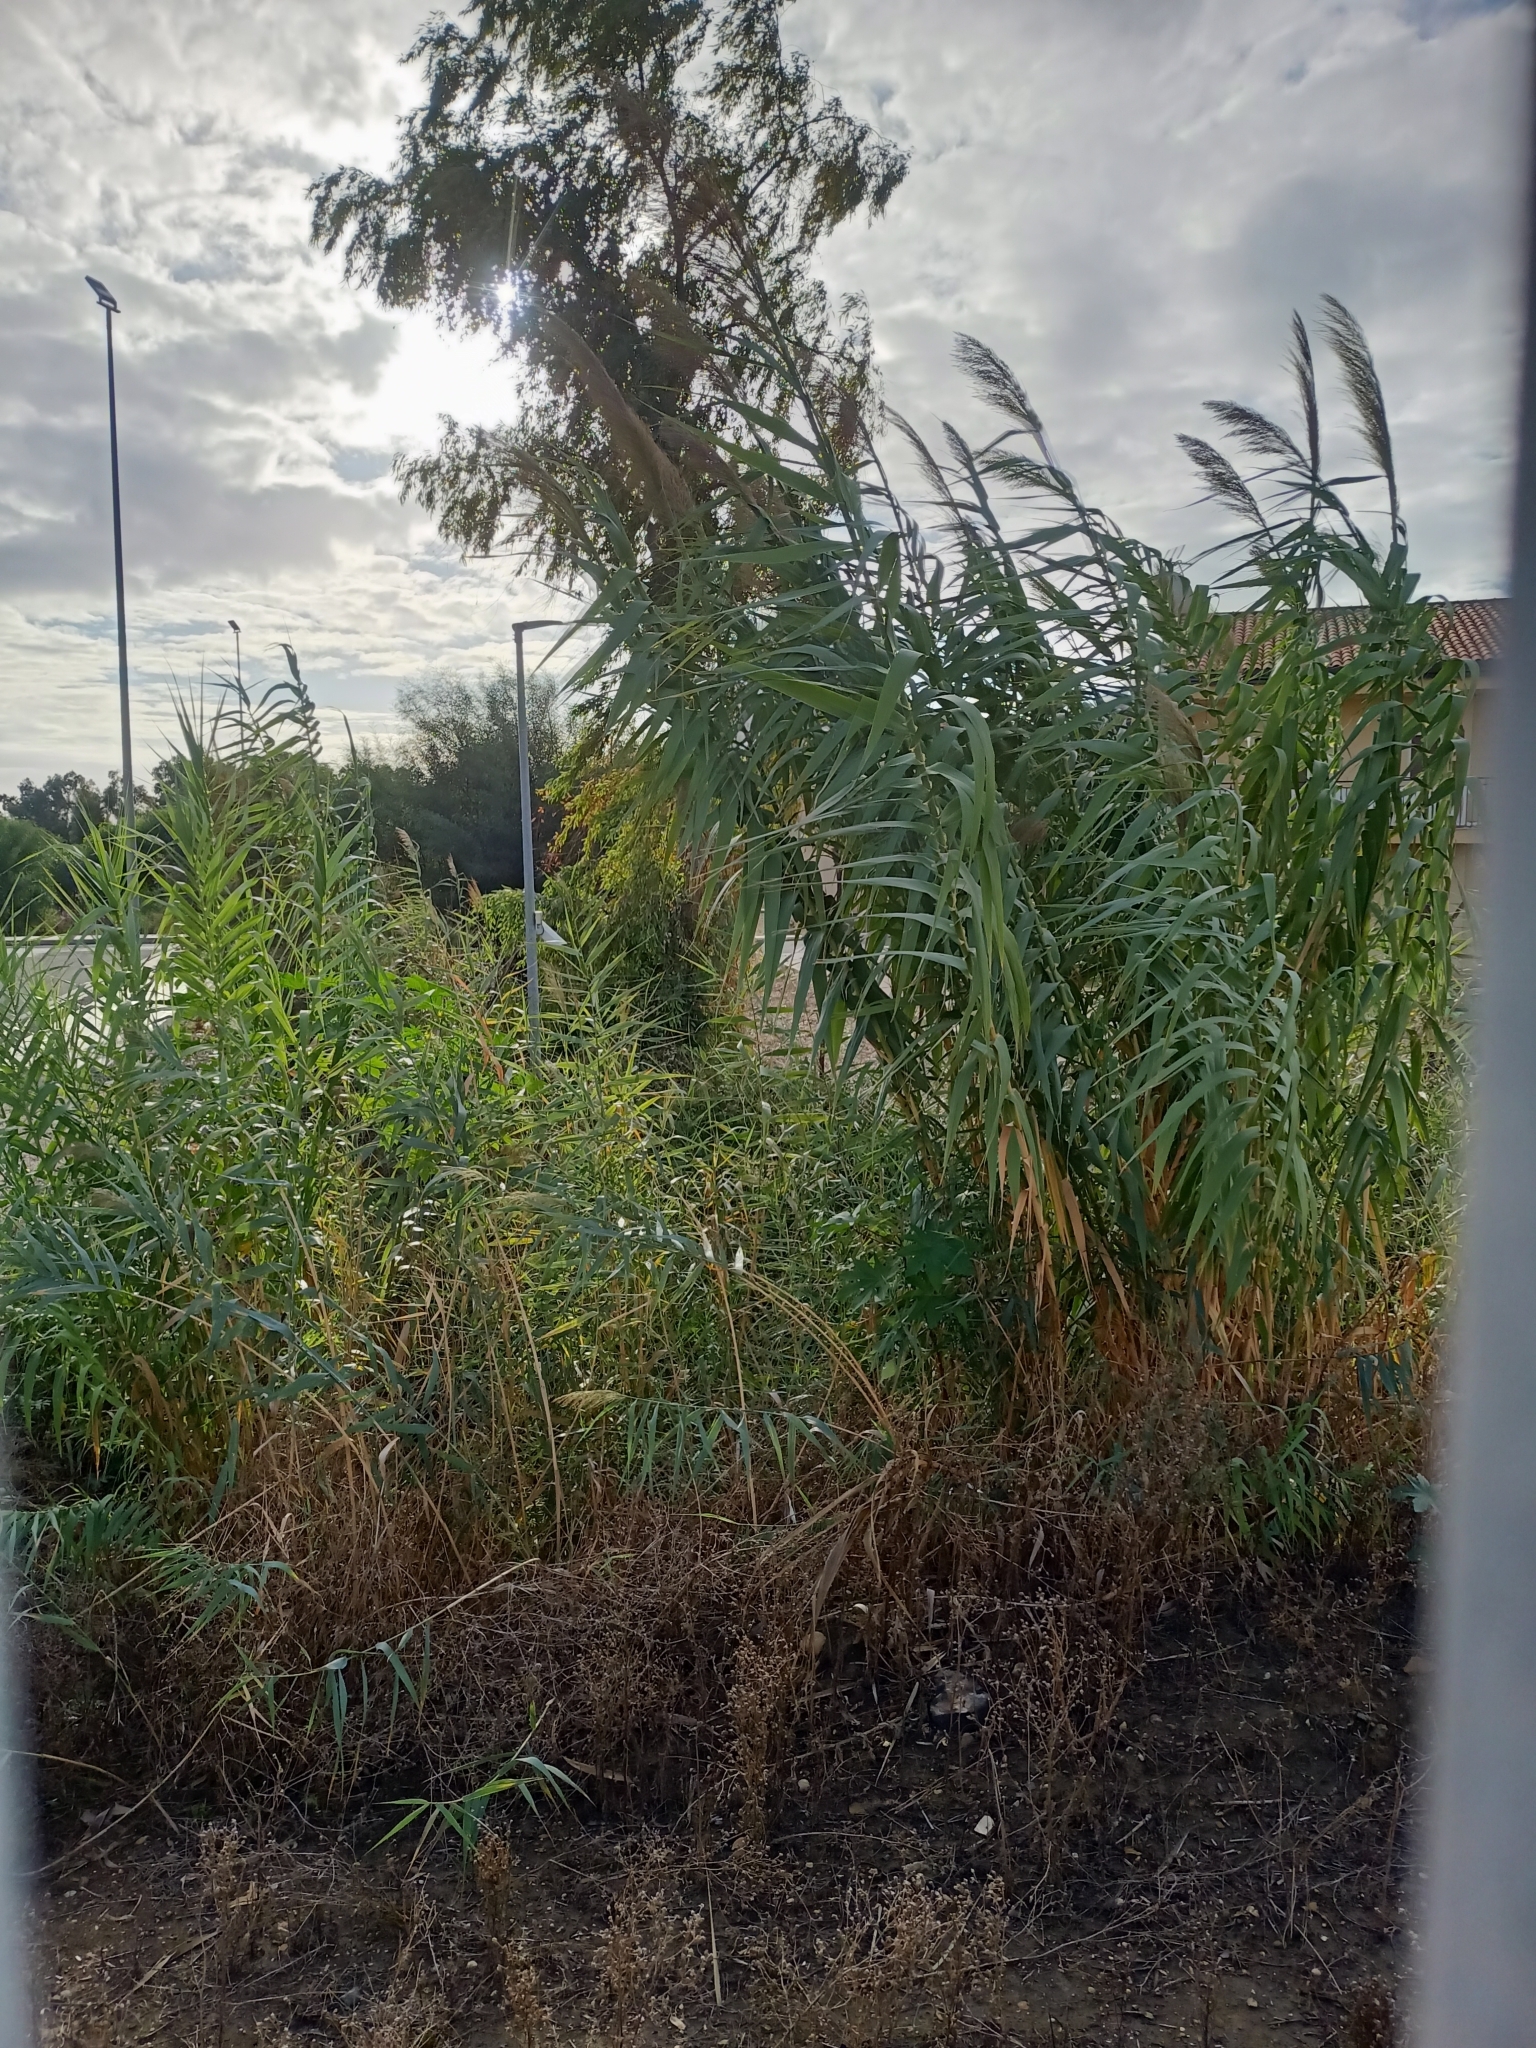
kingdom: Plantae
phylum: Tracheophyta
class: Liliopsida
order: Poales
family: Poaceae
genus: Arundo
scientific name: Arundo donax
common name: Giant reed
